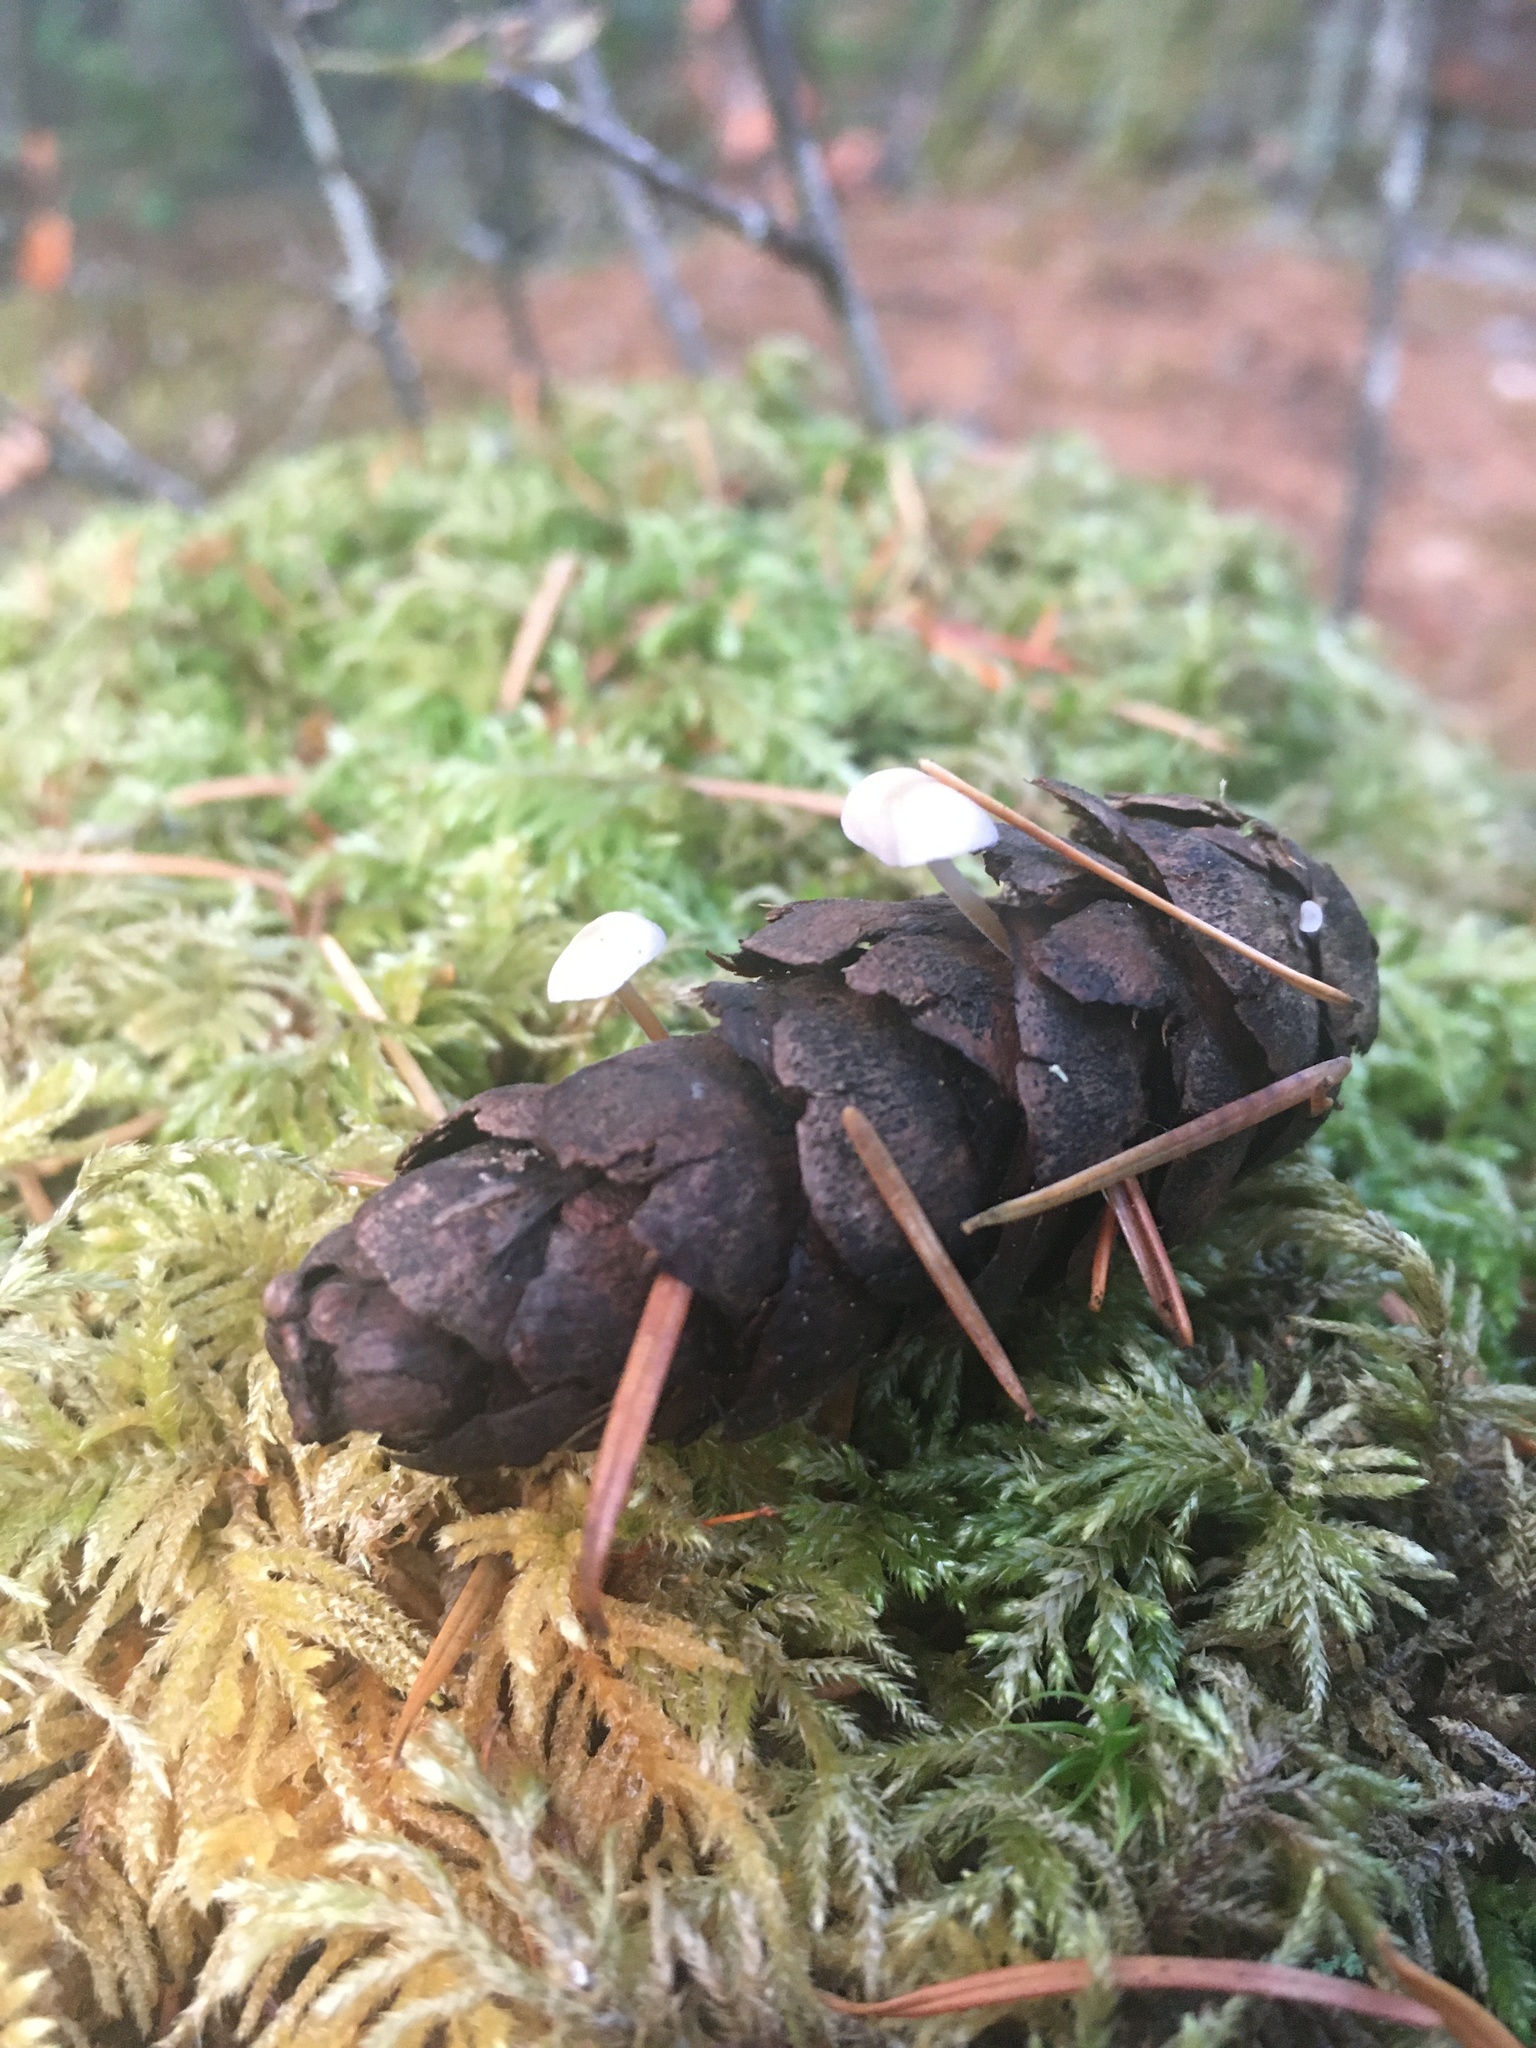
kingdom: Fungi
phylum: Basidiomycota
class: Agaricomycetes
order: Agaricales
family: Physalacriaceae
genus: Strobilurus
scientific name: Strobilurus trullisatus
